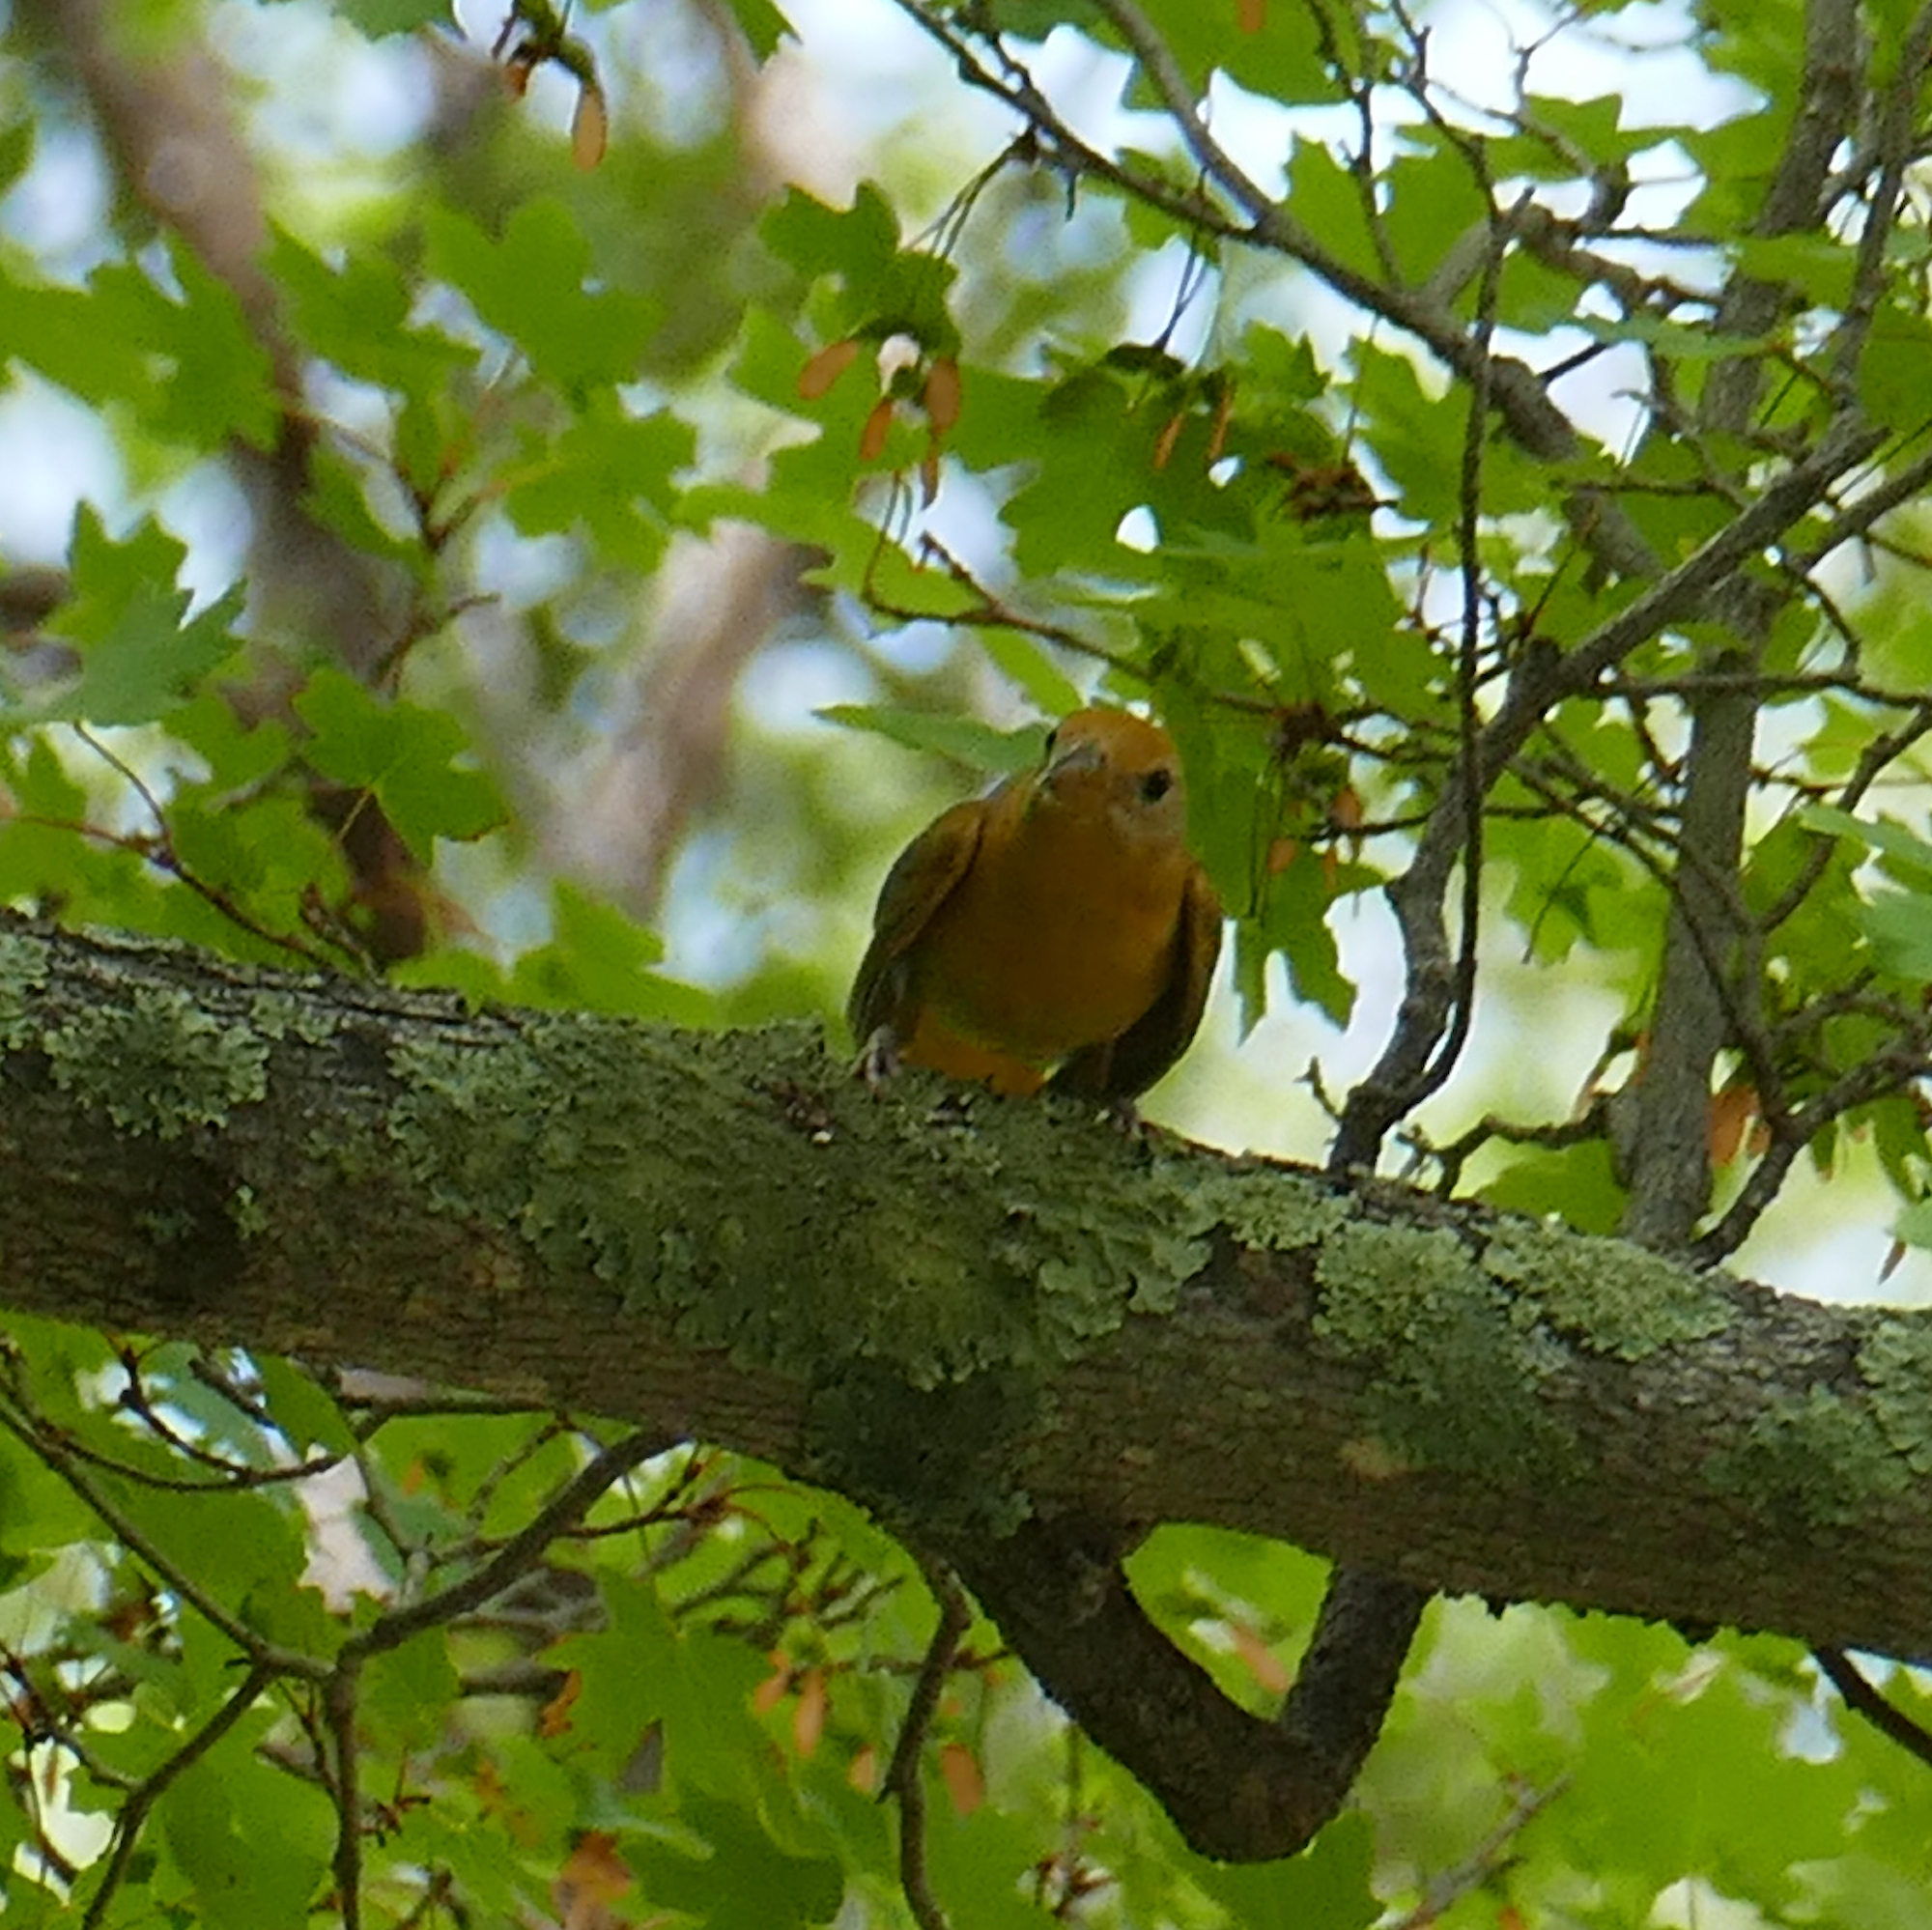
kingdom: Animalia
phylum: Chordata
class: Aves
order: Passeriformes
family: Cardinalidae
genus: Piranga
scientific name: Piranga flava
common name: Red tanager
